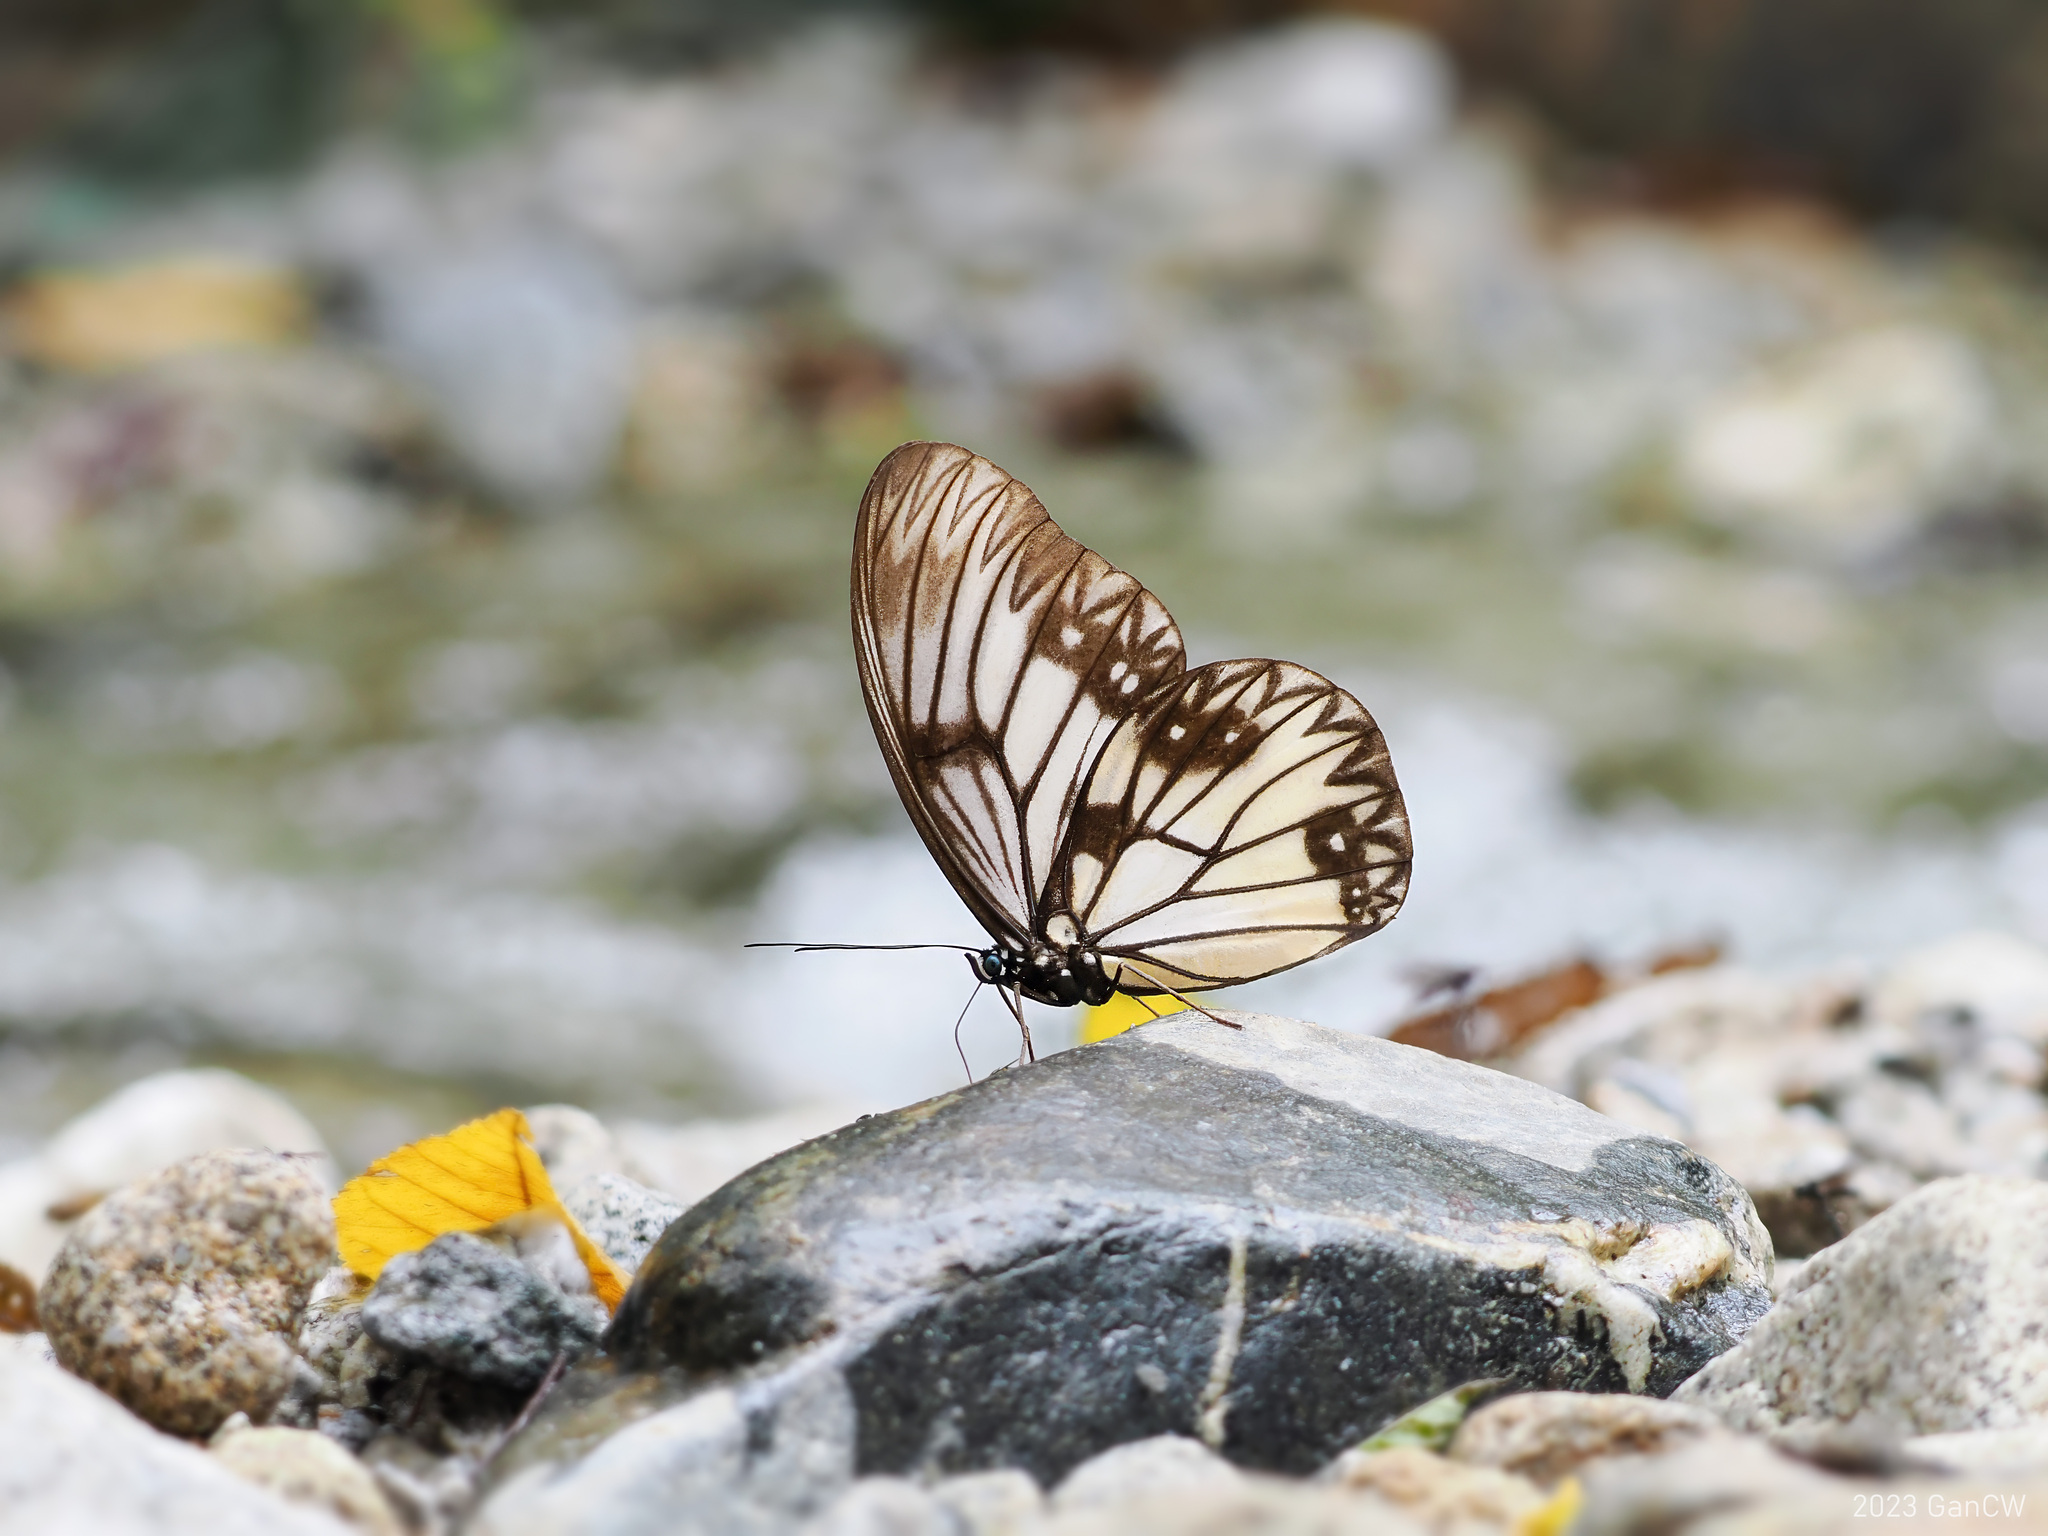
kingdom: Animalia
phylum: Arthropoda
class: Insecta
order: Lepidoptera
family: Nymphalidae
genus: Zethera
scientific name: Zethera incerta
